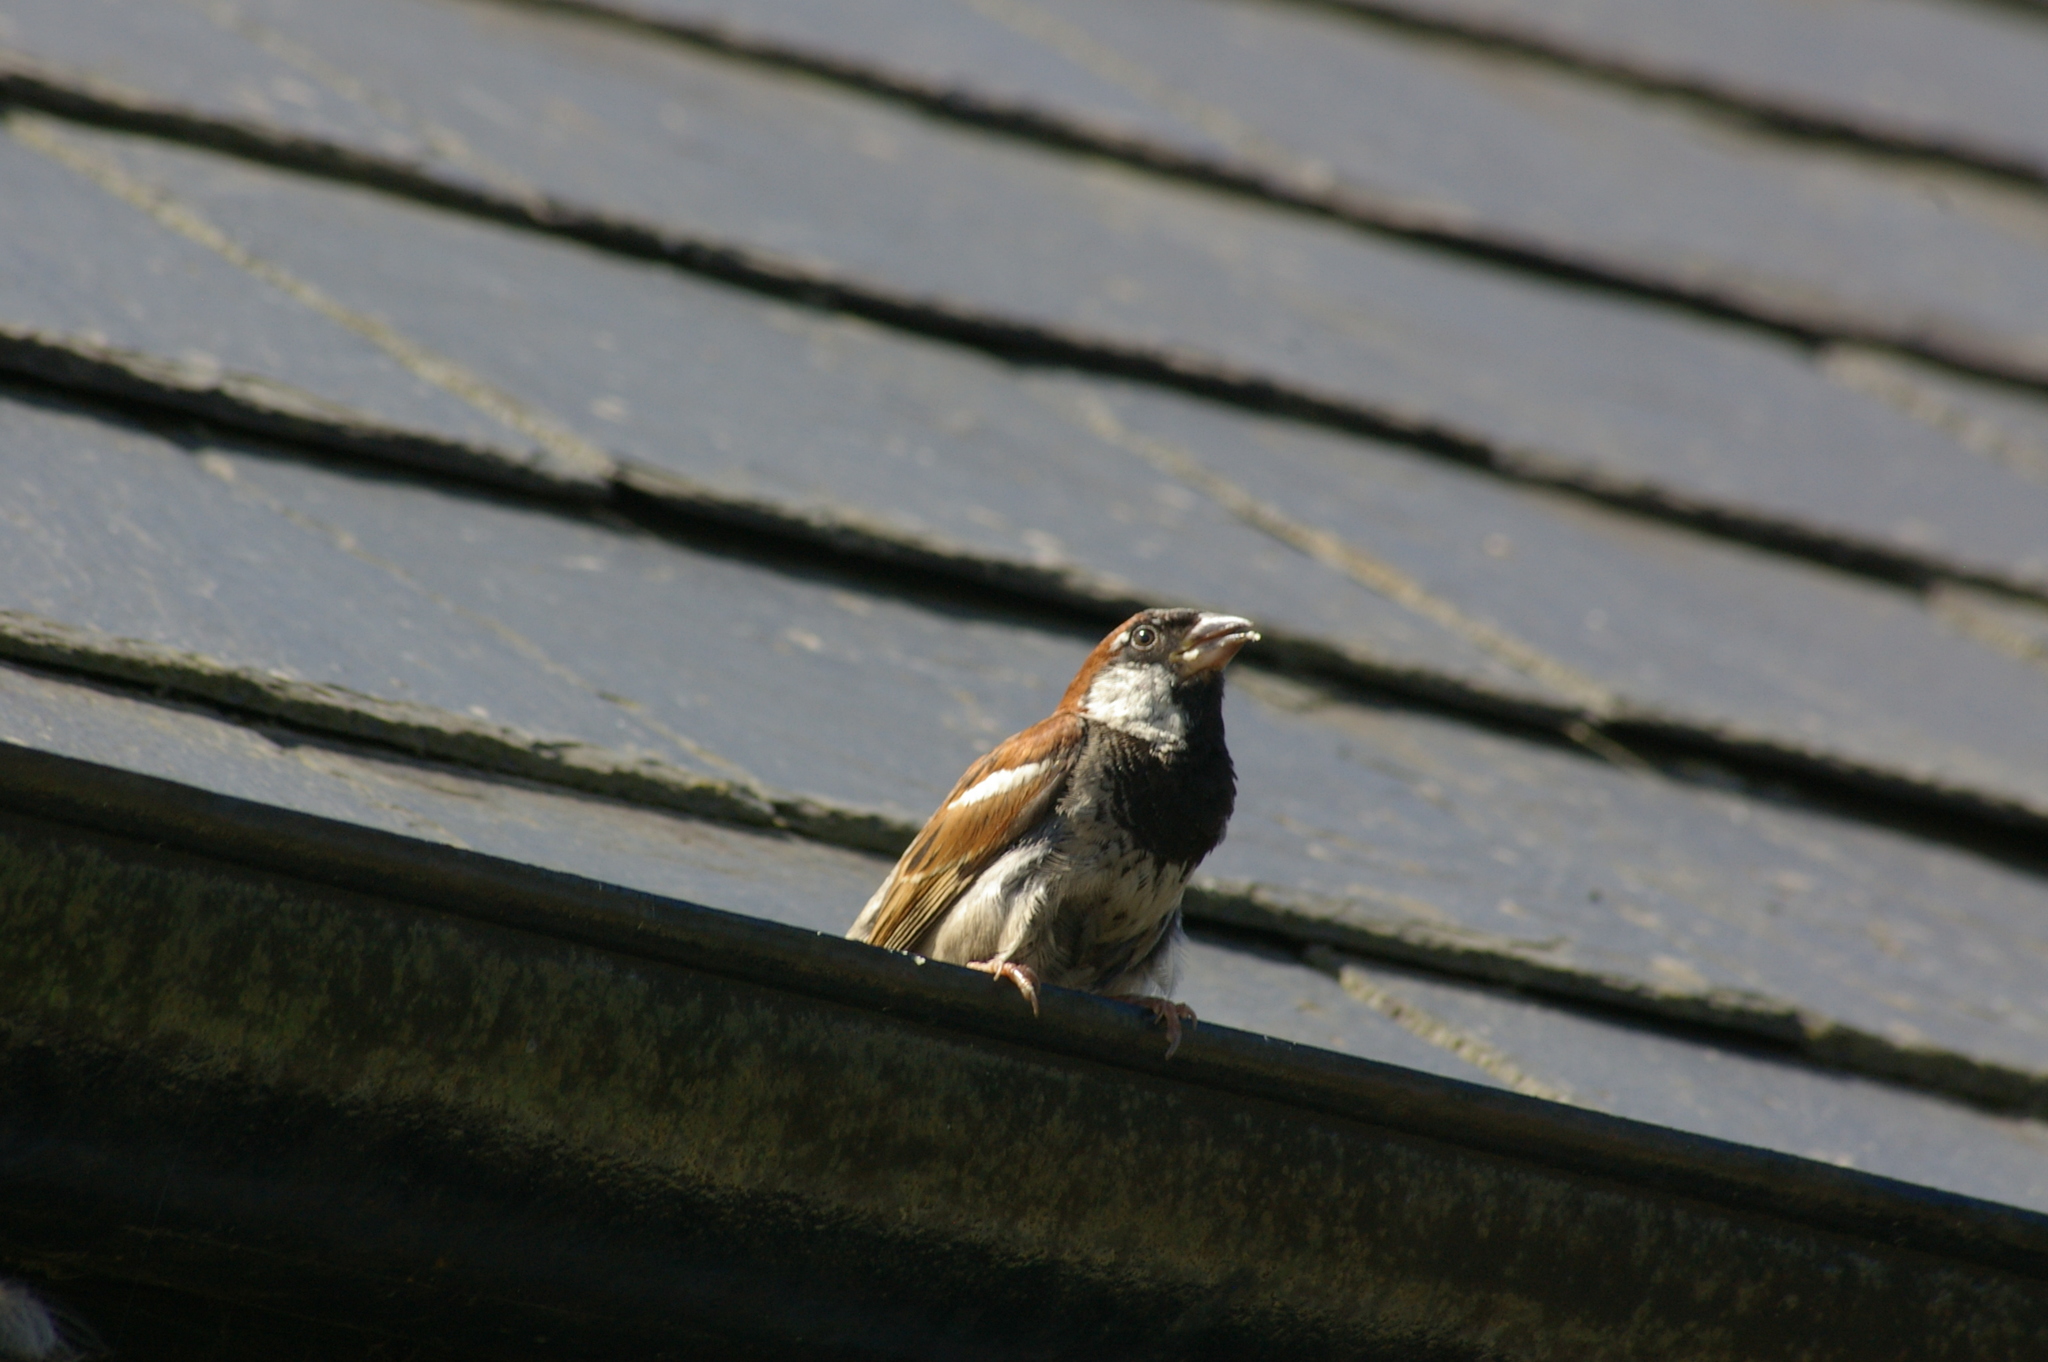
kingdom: Animalia
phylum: Chordata
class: Aves
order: Passeriformes
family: Passeridae
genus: Passer
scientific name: Passer domesticus
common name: House sparrow
